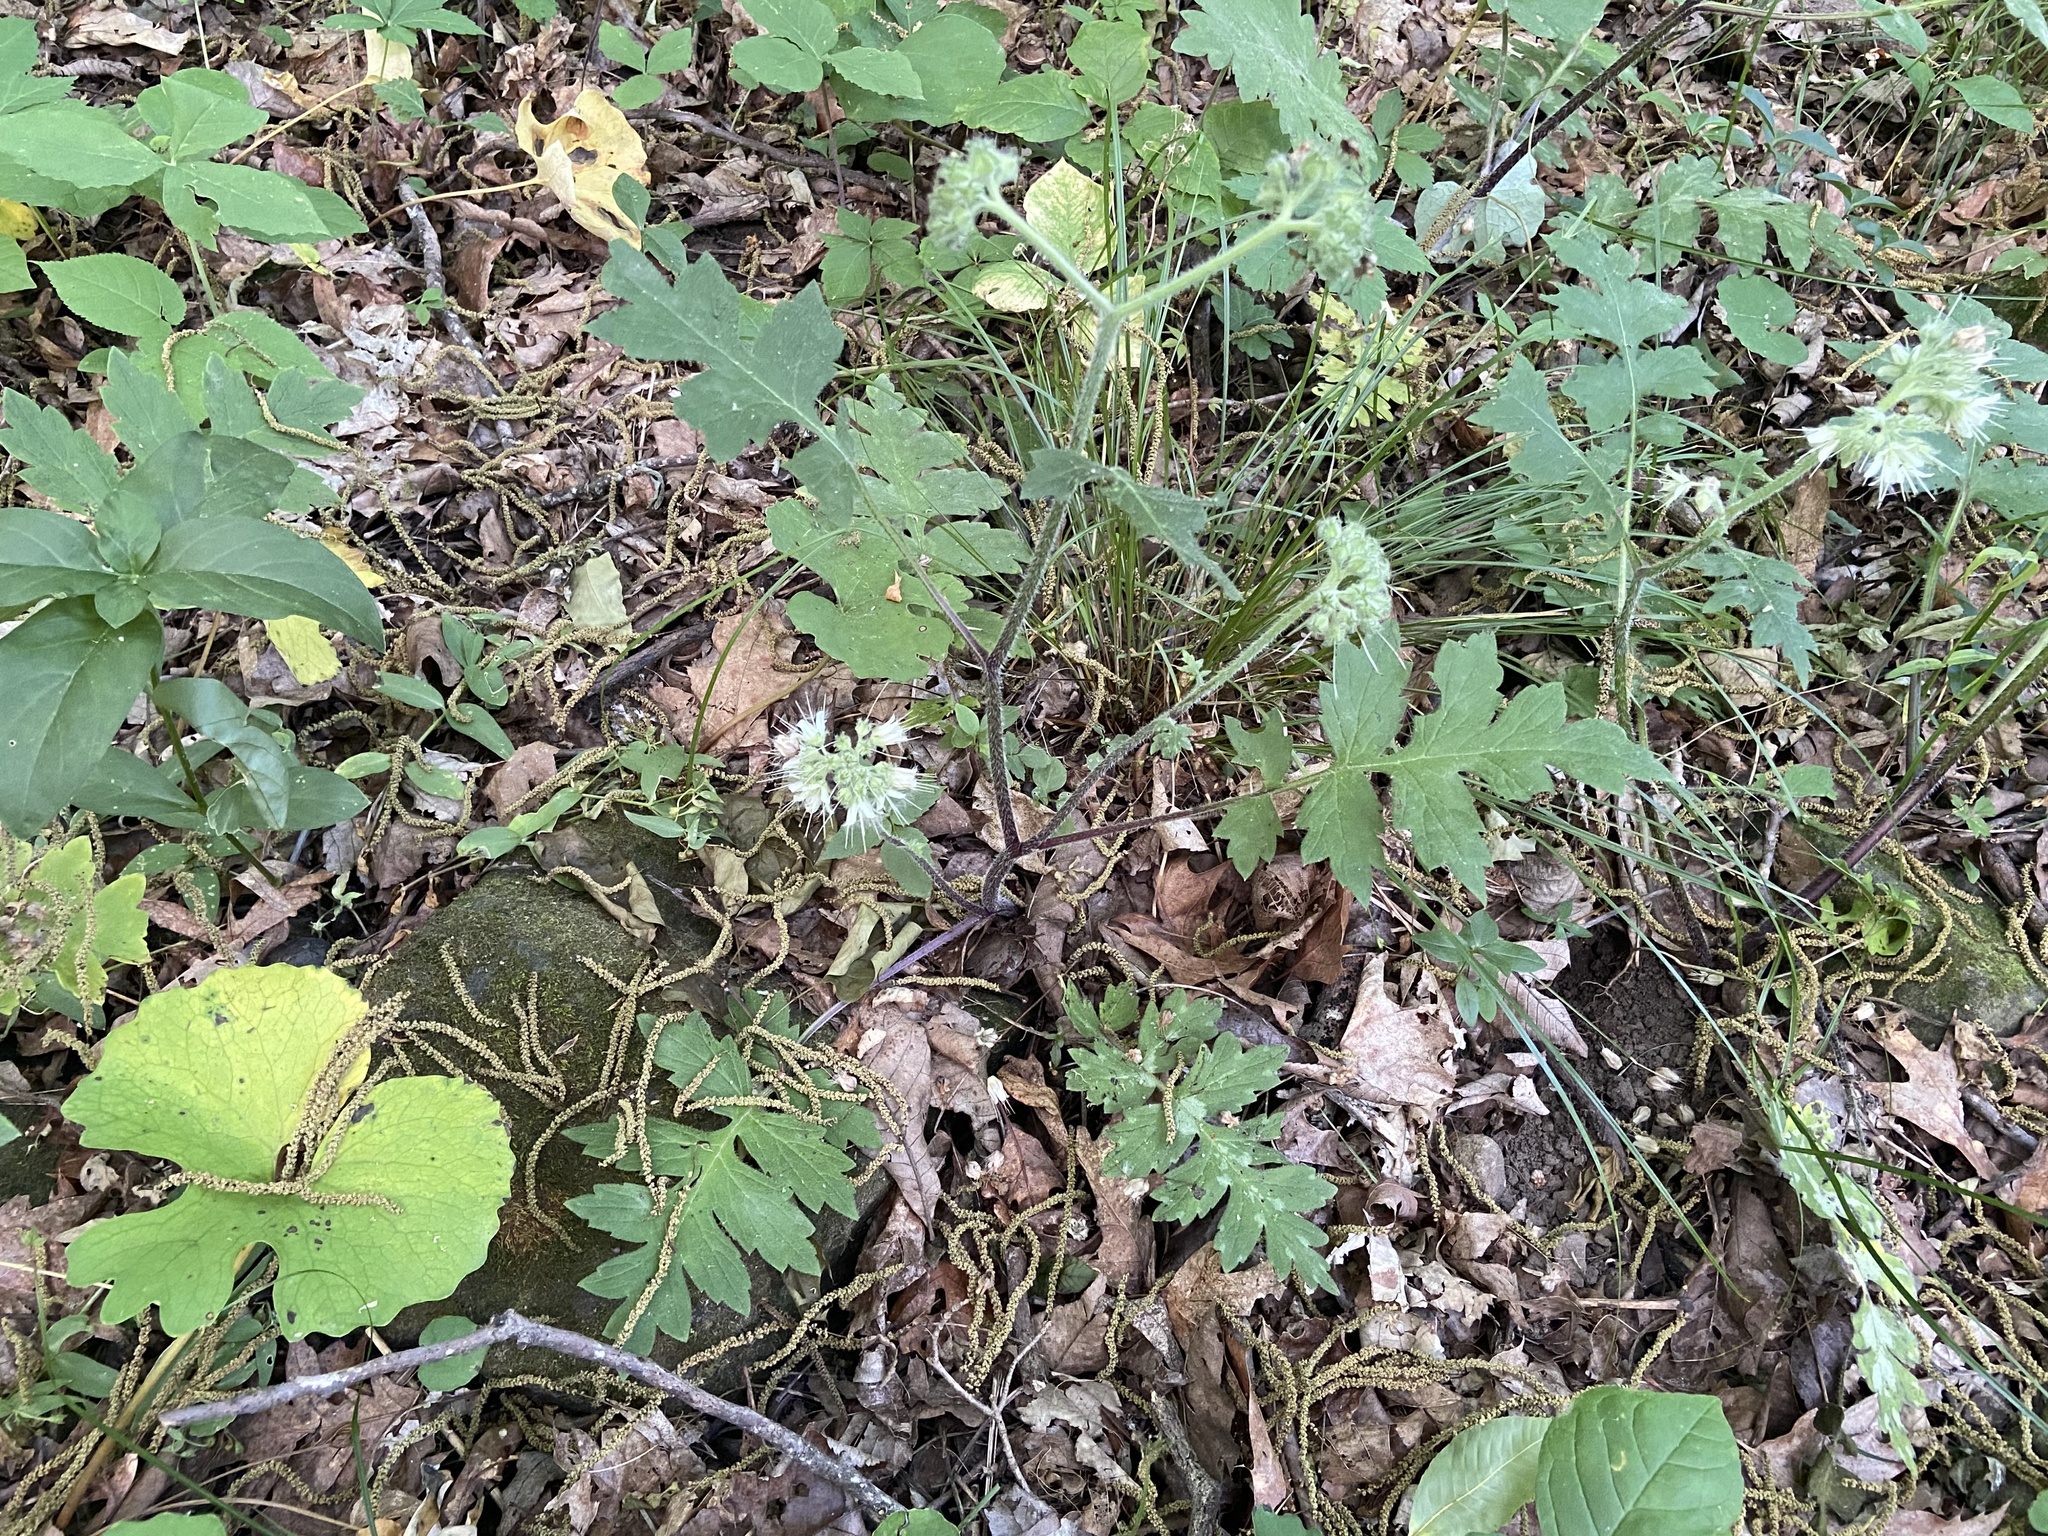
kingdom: Plantae
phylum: Tracheophyta
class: Magnoliopsida
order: Boraginales
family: Hydrophyllaceae
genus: Hydrophyllum
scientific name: Hydrophyllum macrophyllum
